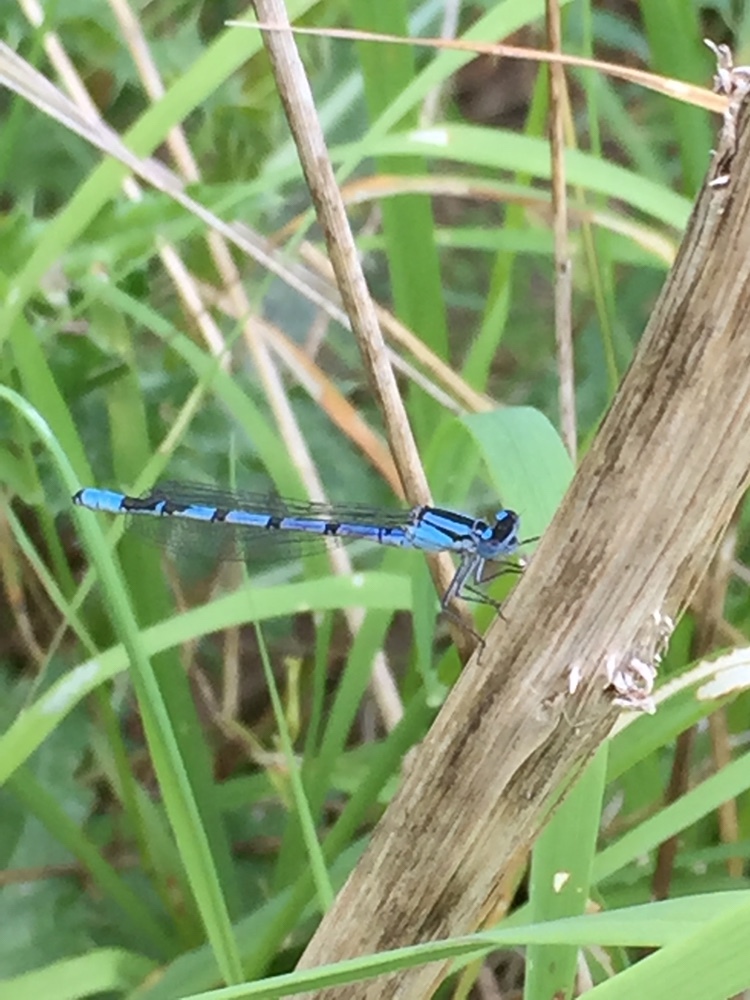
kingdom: Animalia
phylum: Arthropoda
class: Insecta
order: Odonata
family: Coenagrionidae
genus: Enallagma
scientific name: Enallagma cyathigerum
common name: Common blue damselfly
